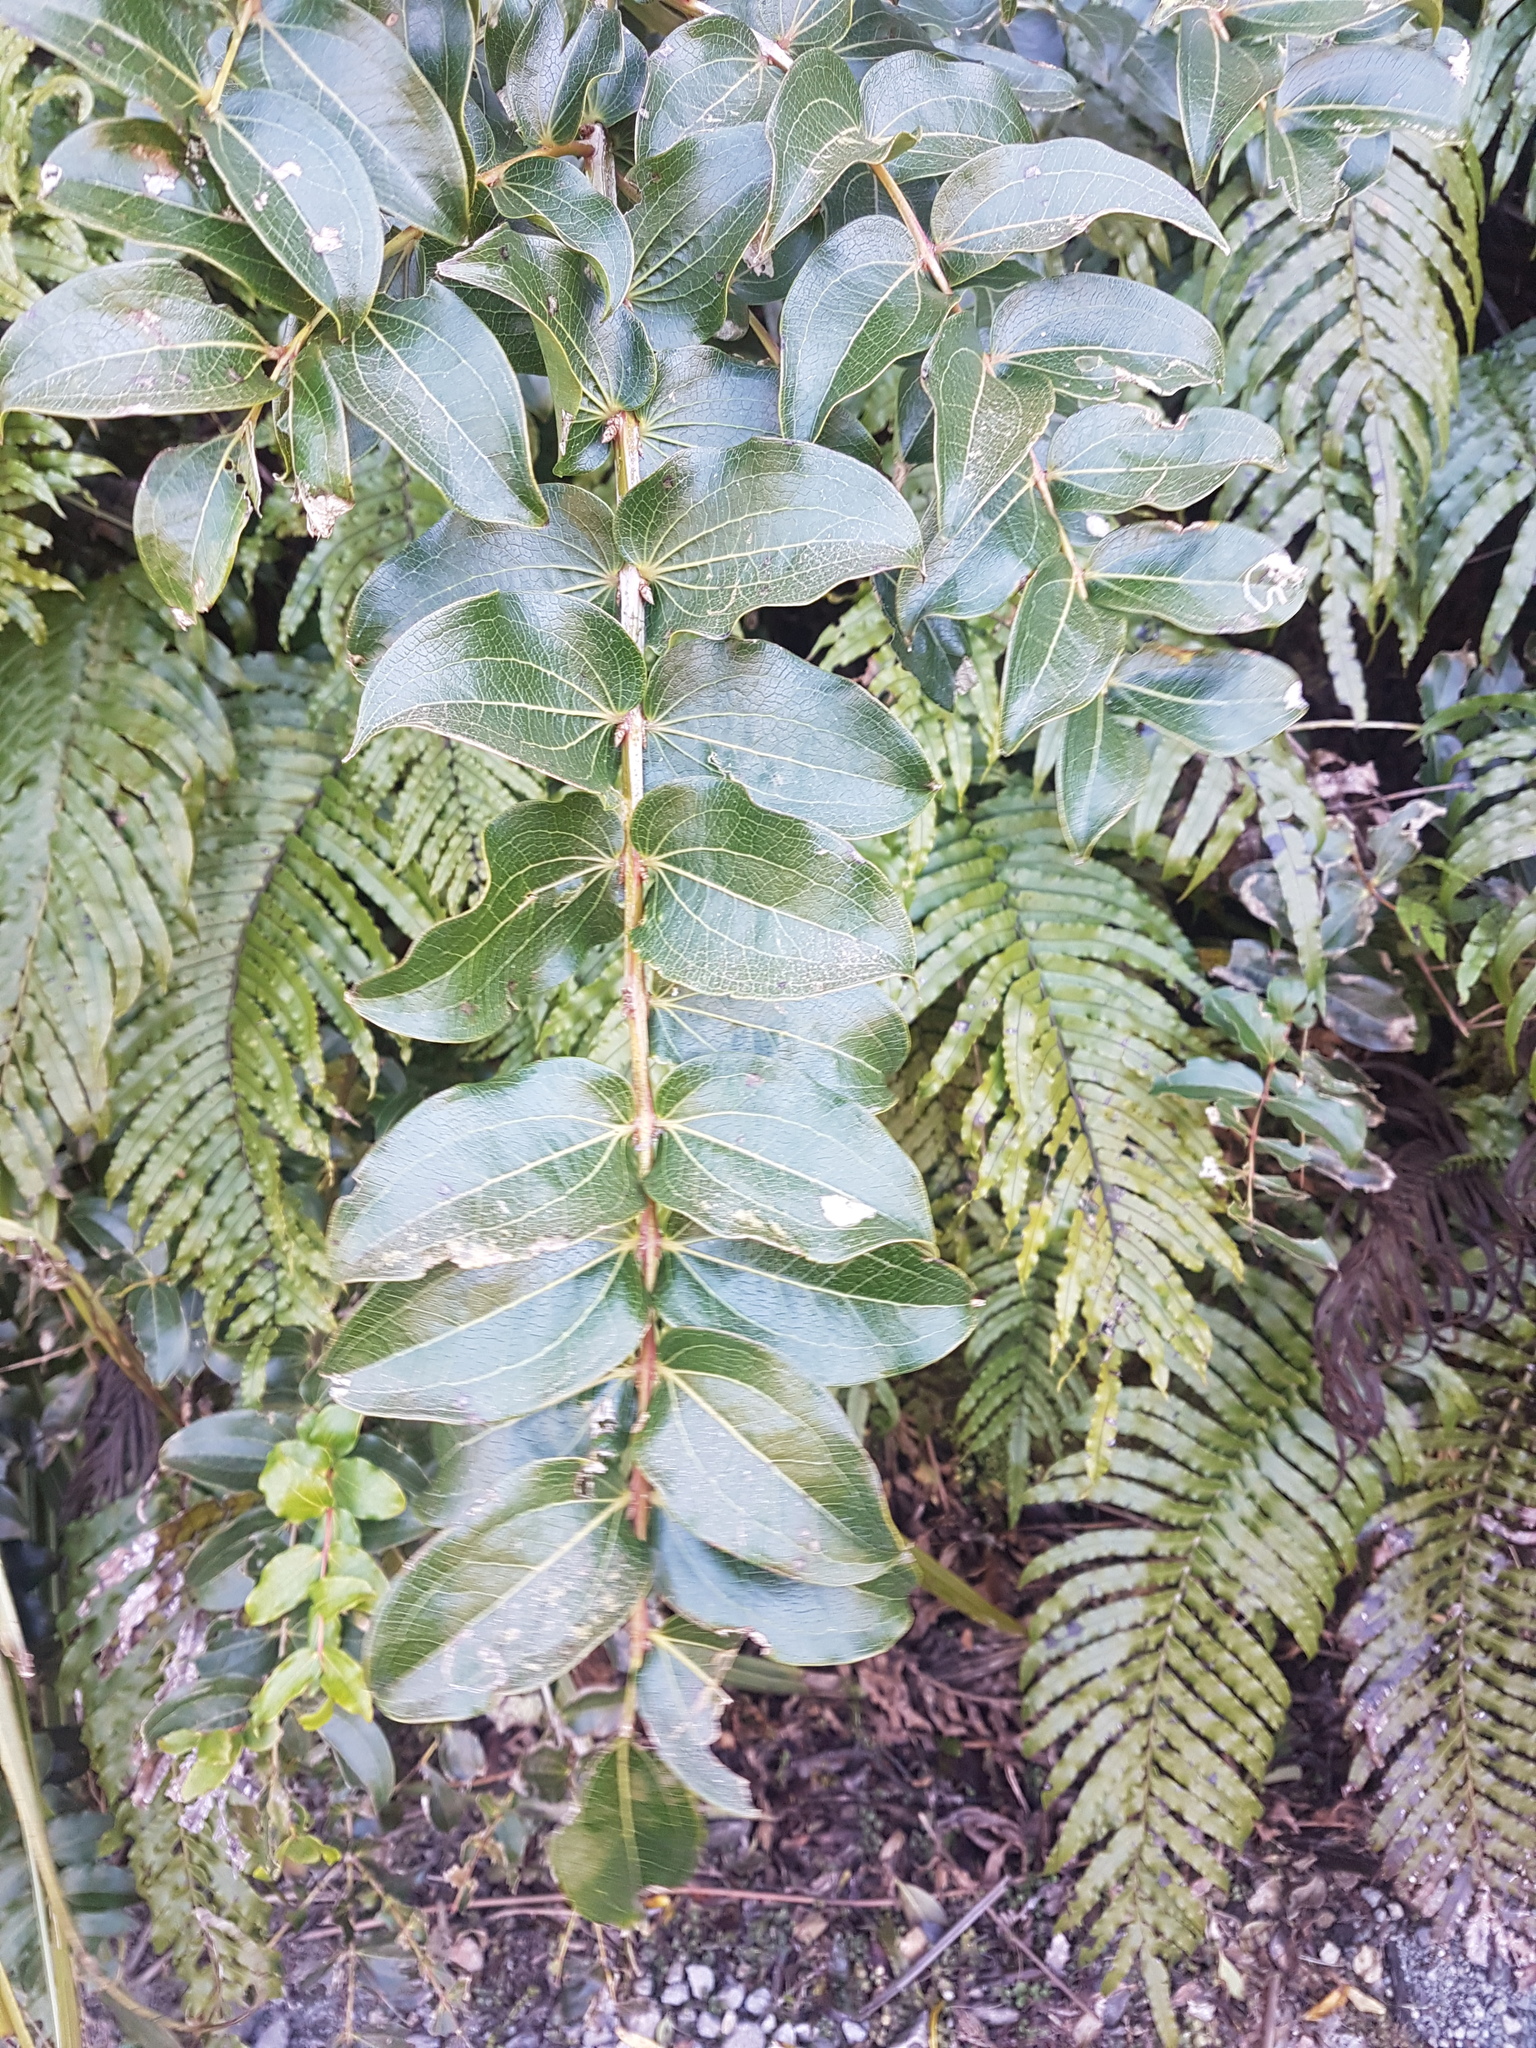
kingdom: Plantae
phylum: Tracheophyta
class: Magnoliopsida
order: Cucurbitales
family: Coriariaceae
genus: Coriaria
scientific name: Coriaria arborea
